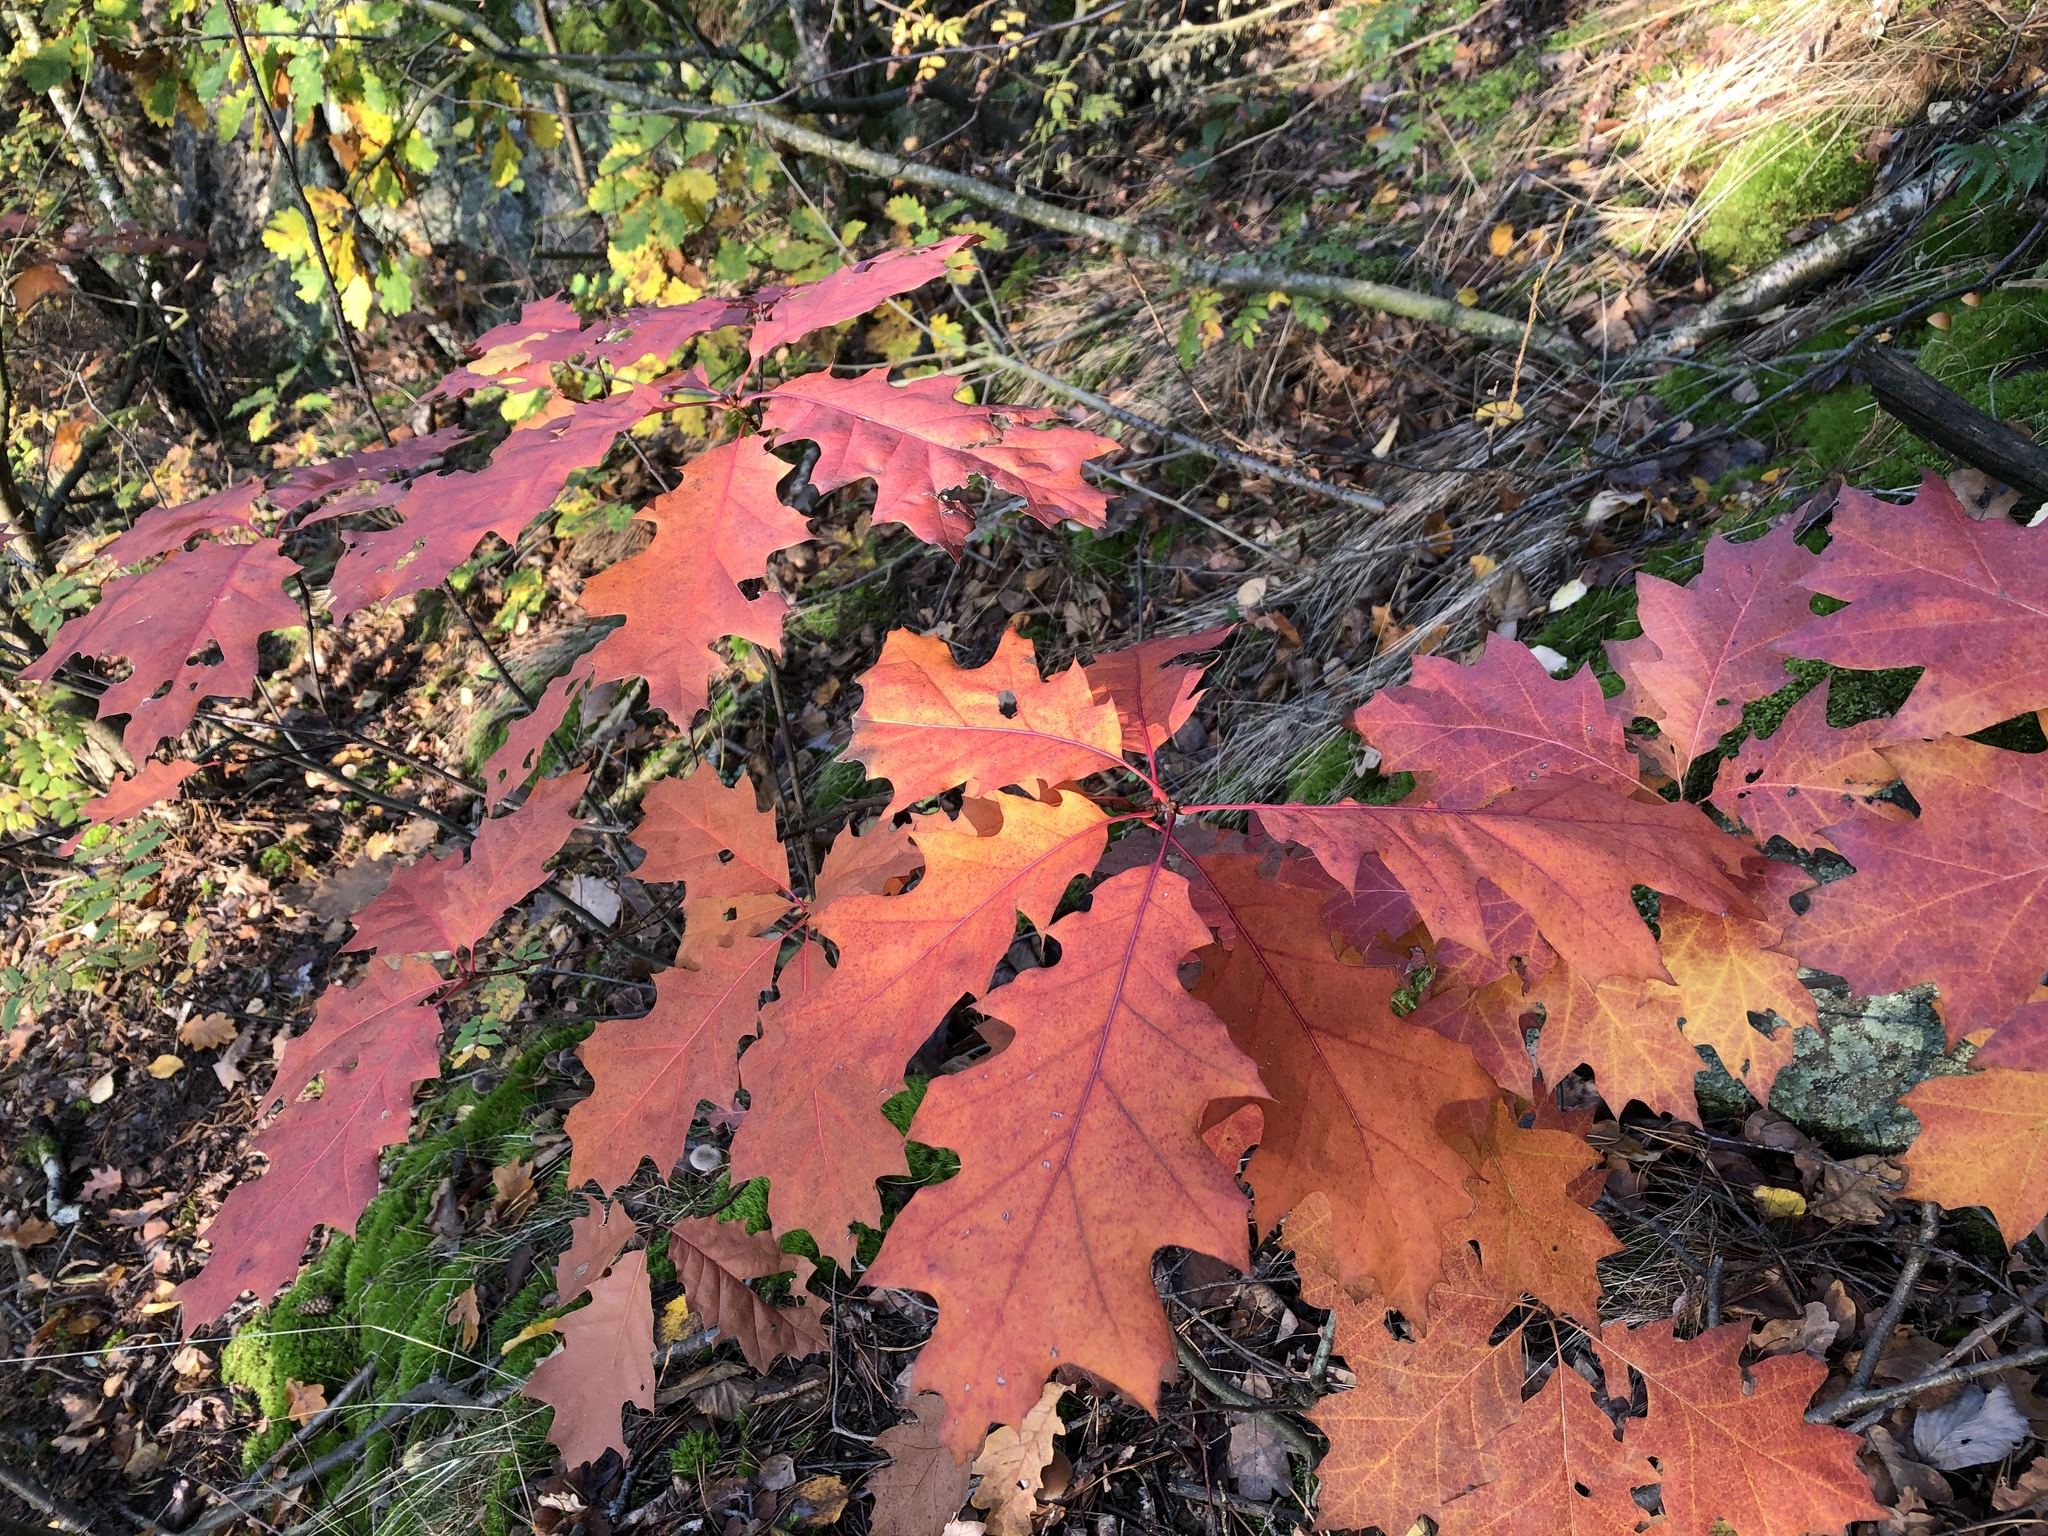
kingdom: Plantae
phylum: Tracheophyta
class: Magnoliopsida
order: Fagales
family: Fagaceae
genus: Quercus
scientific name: Quercus rubra
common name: Red oak
